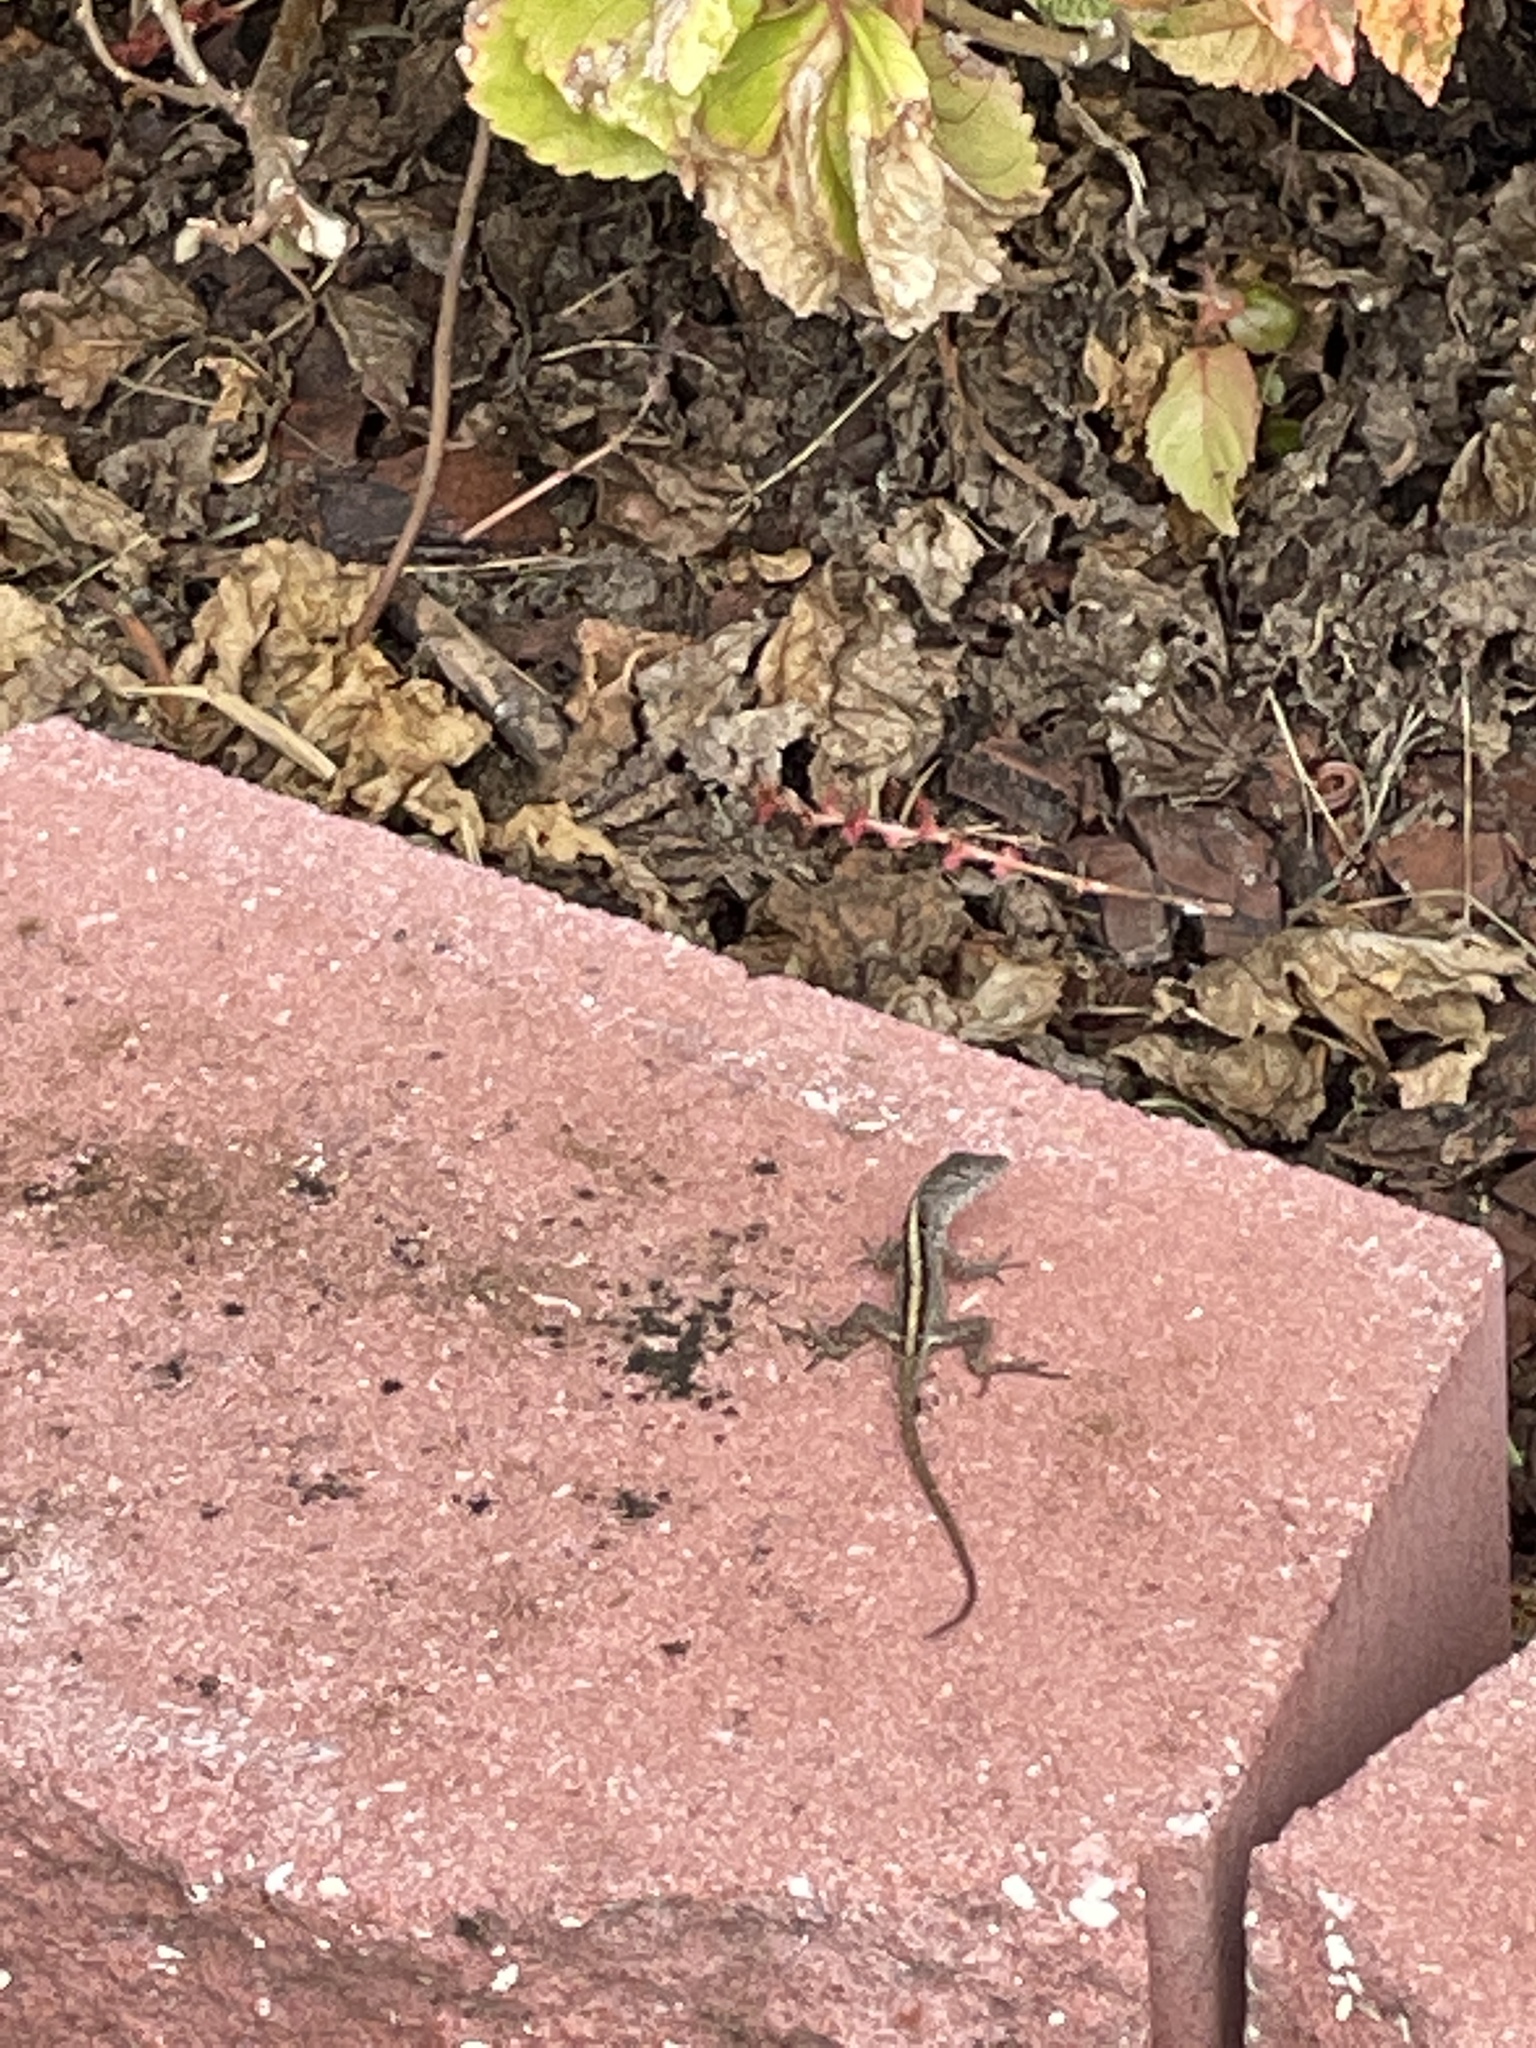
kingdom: Animalia
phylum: Chordata
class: Squamata
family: Dactyloidae
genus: Anolis
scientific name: Anolis sagrei
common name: Brown anole
